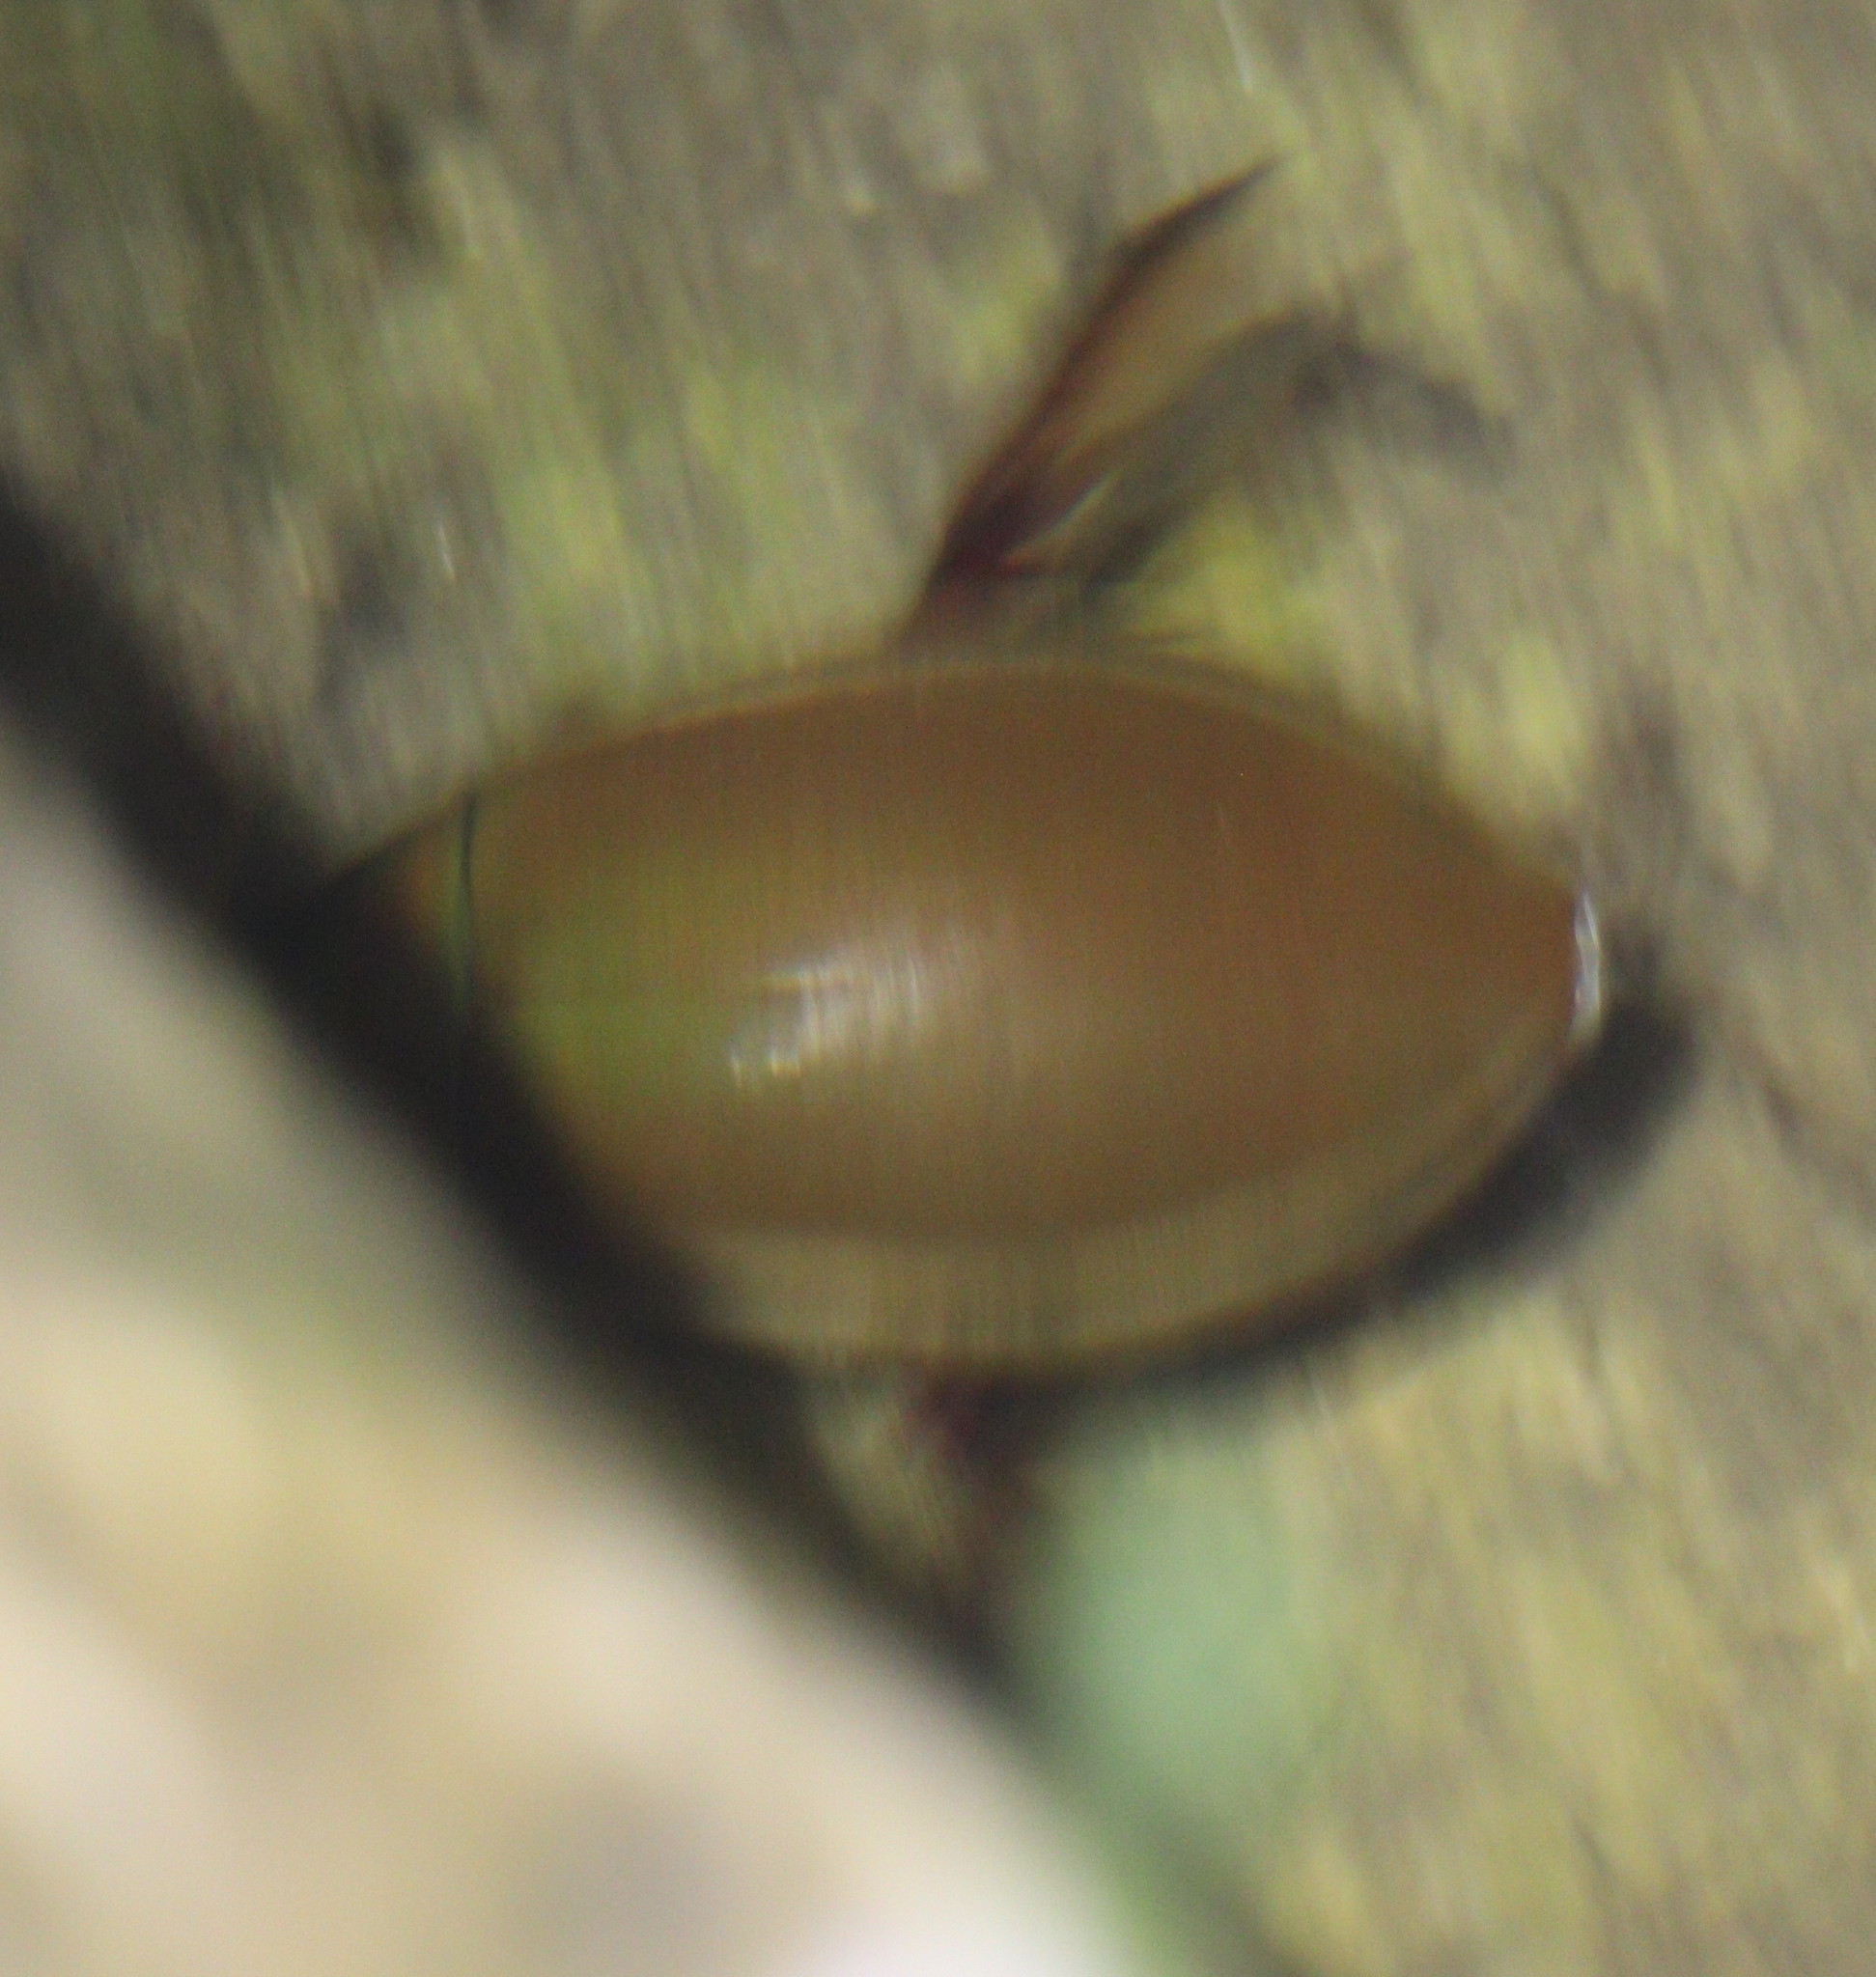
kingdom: Animalia
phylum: Arthropoda
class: Insecta
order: Coleoptera
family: Dytiscidae
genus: Cybister
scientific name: Cybister lateralimarginalis
